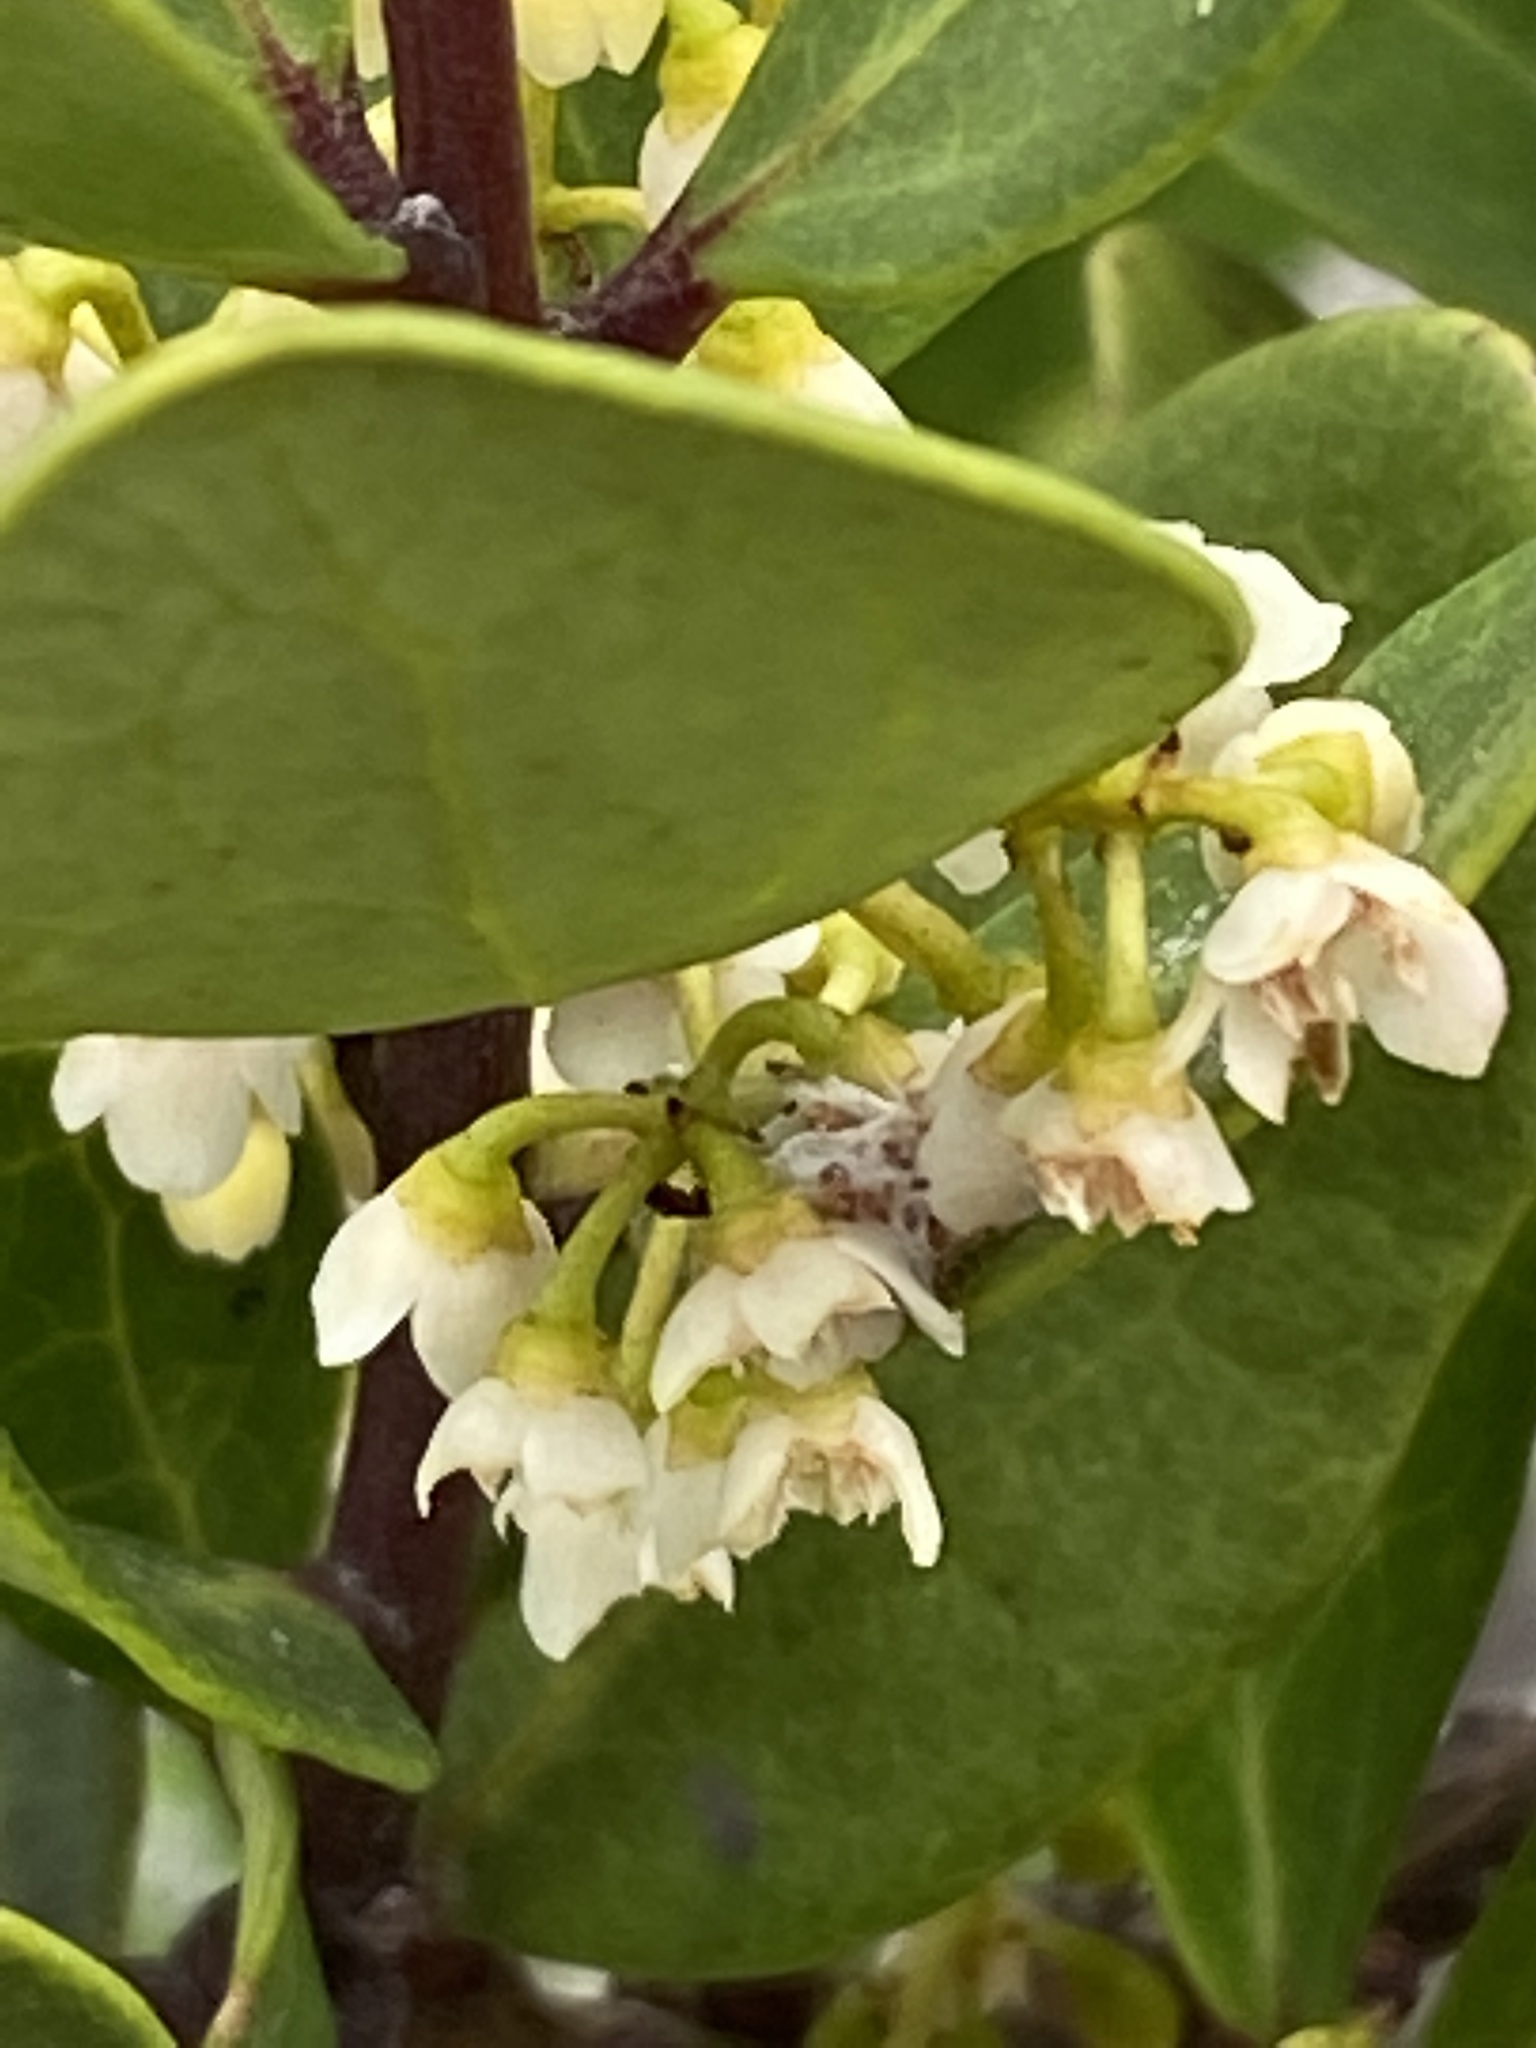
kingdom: Plantae
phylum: Tracheophyta
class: Magnoliopsida
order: Ericales
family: Ebenaceae
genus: Euclea
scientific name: Euclea racemosa
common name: Dune guarri
